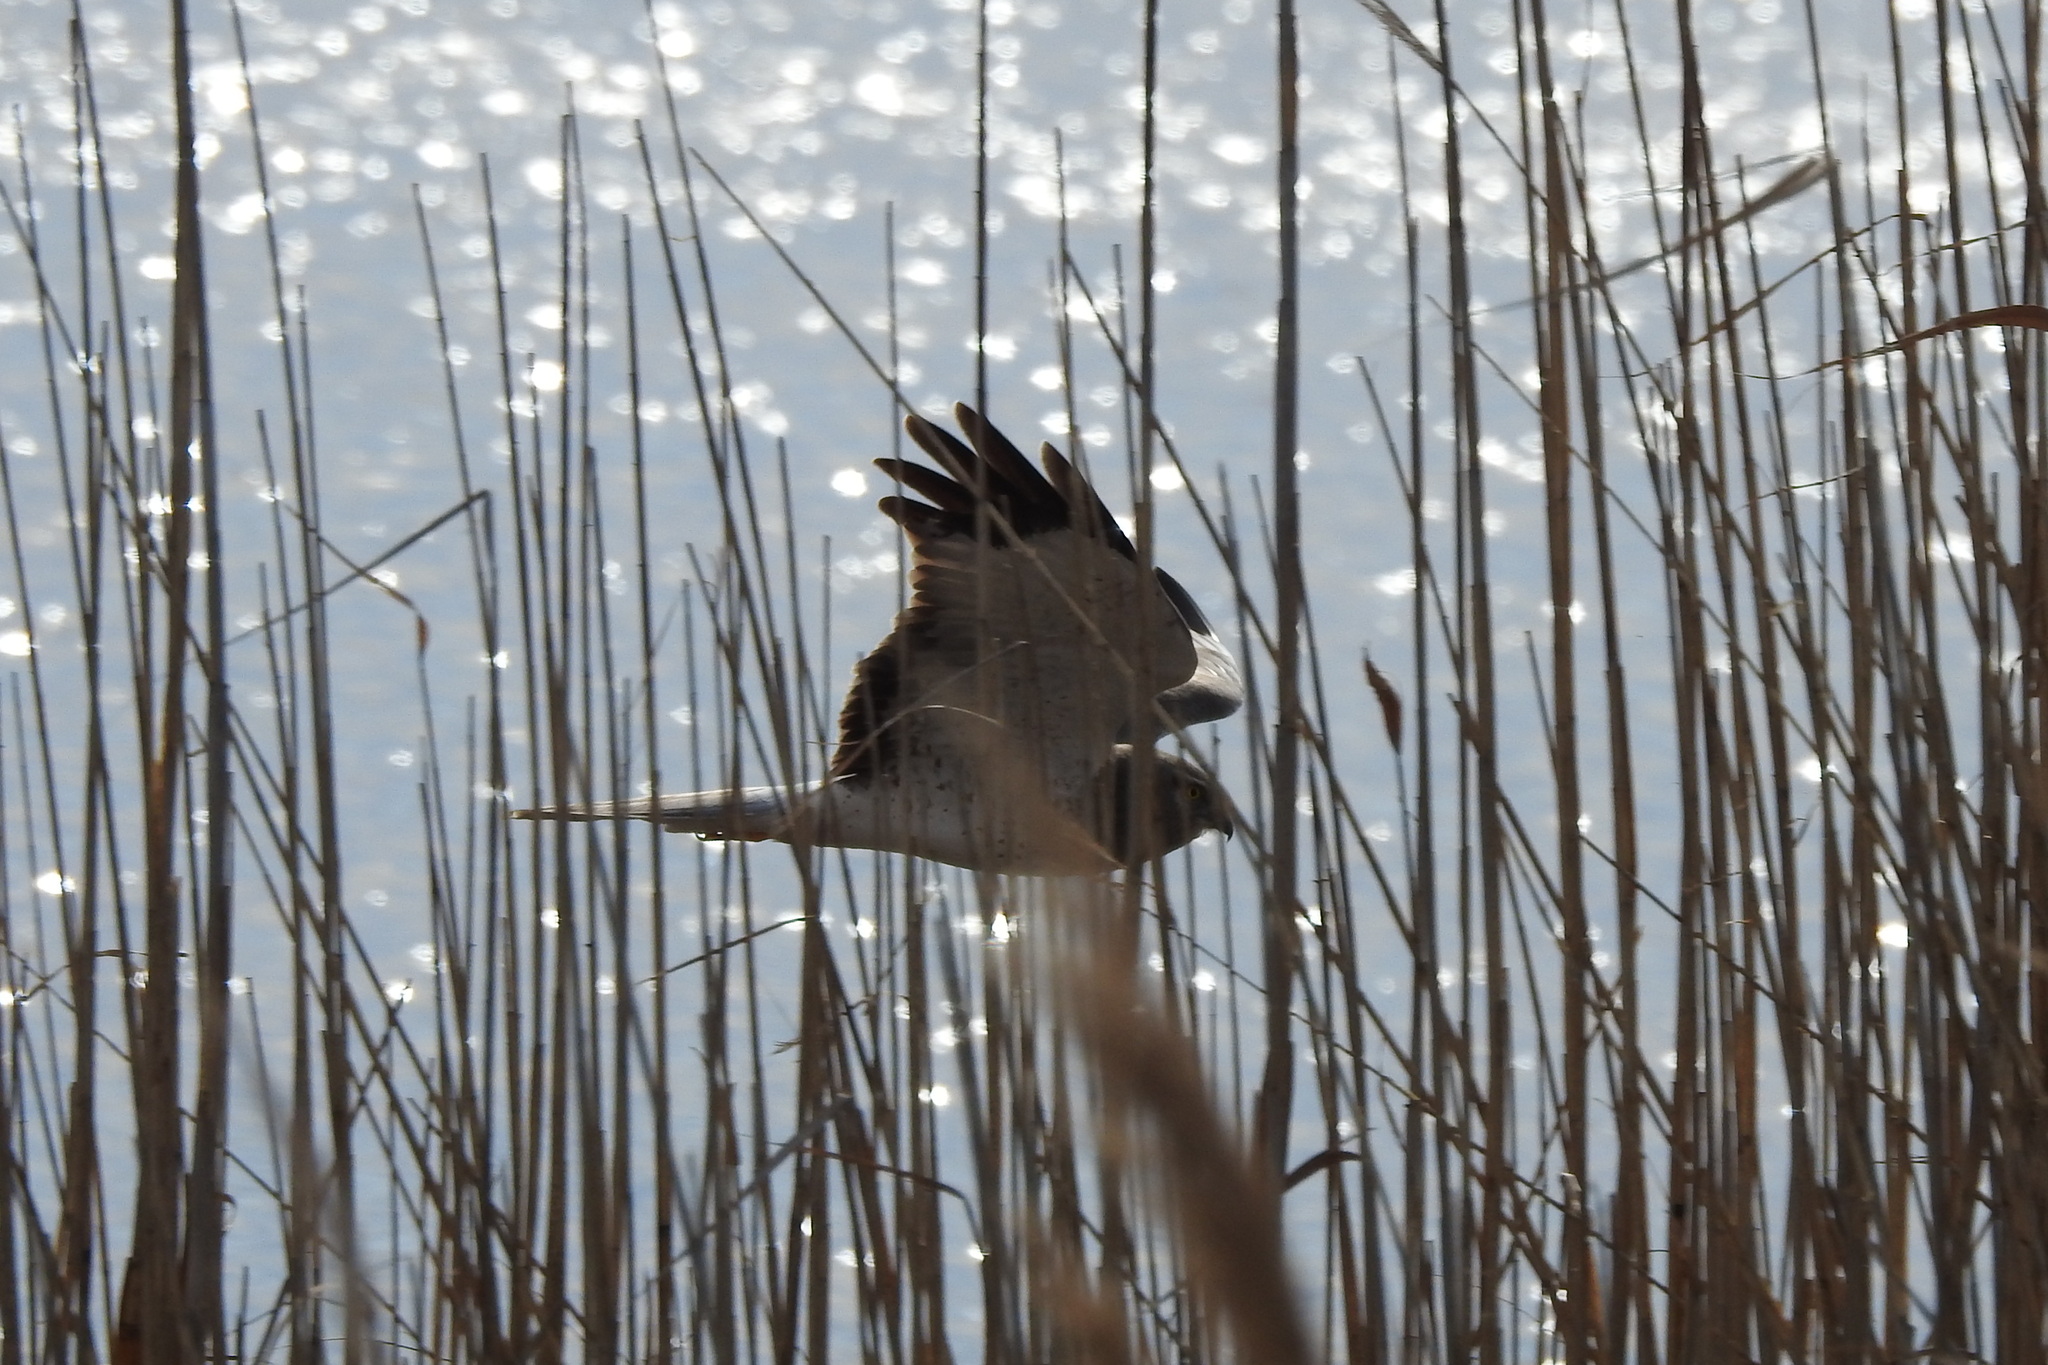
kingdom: Animalia
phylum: Chordata
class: Aves
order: Accipitriformes
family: Accipitridae
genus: Circus
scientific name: Circus cyaneus
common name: Hen harrier
